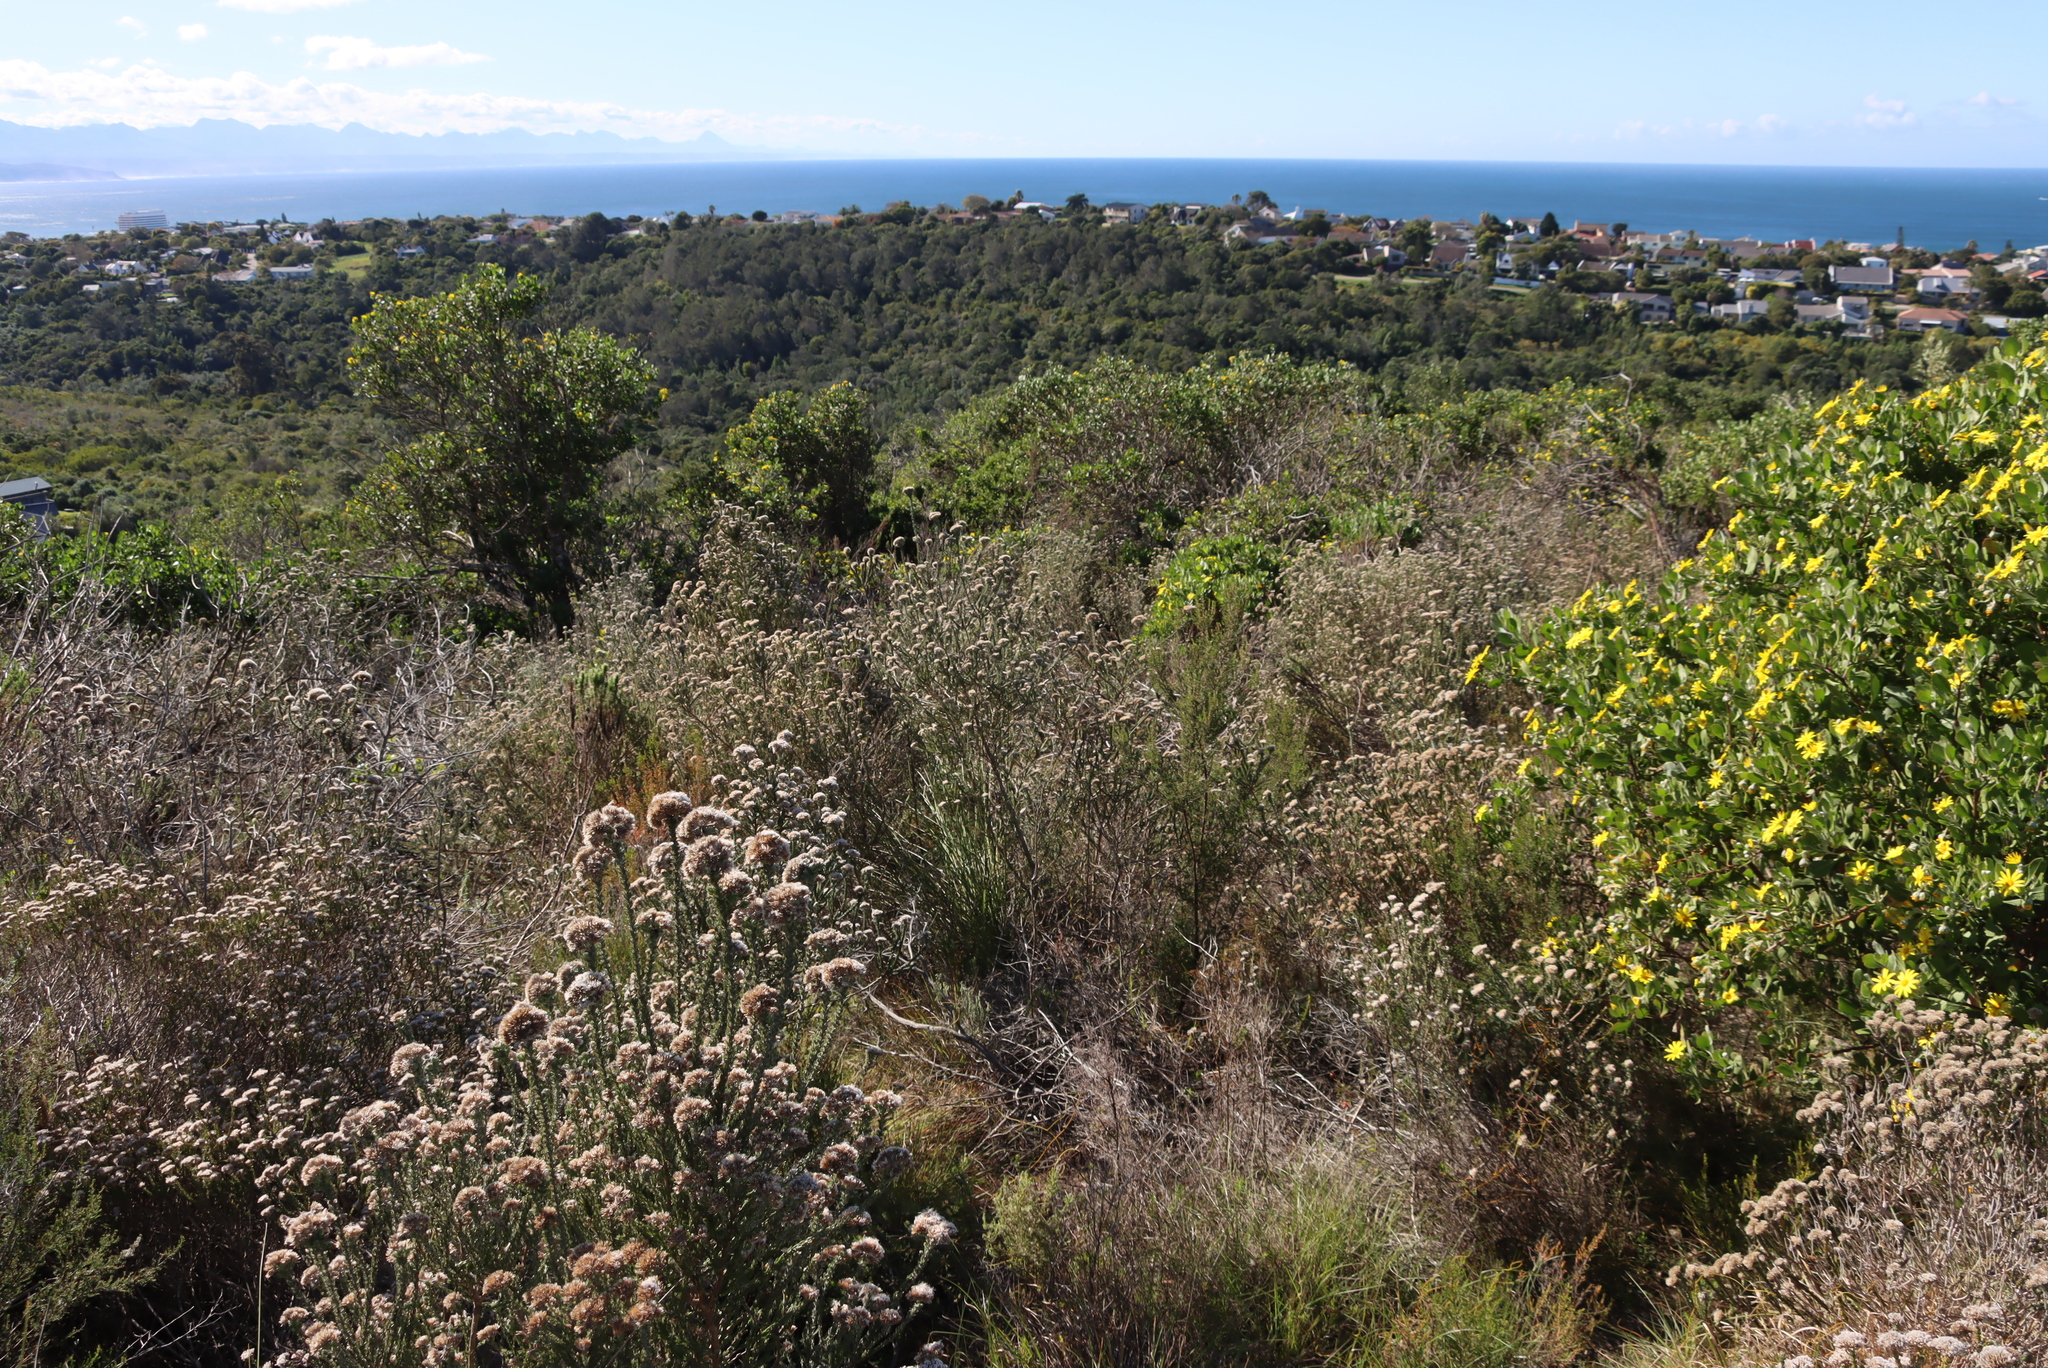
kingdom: Plantae
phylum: Tracheophyta
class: Magnoliopsida
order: Asterales
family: Asteraceae
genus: Metalasia
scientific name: Metalasia pungens
